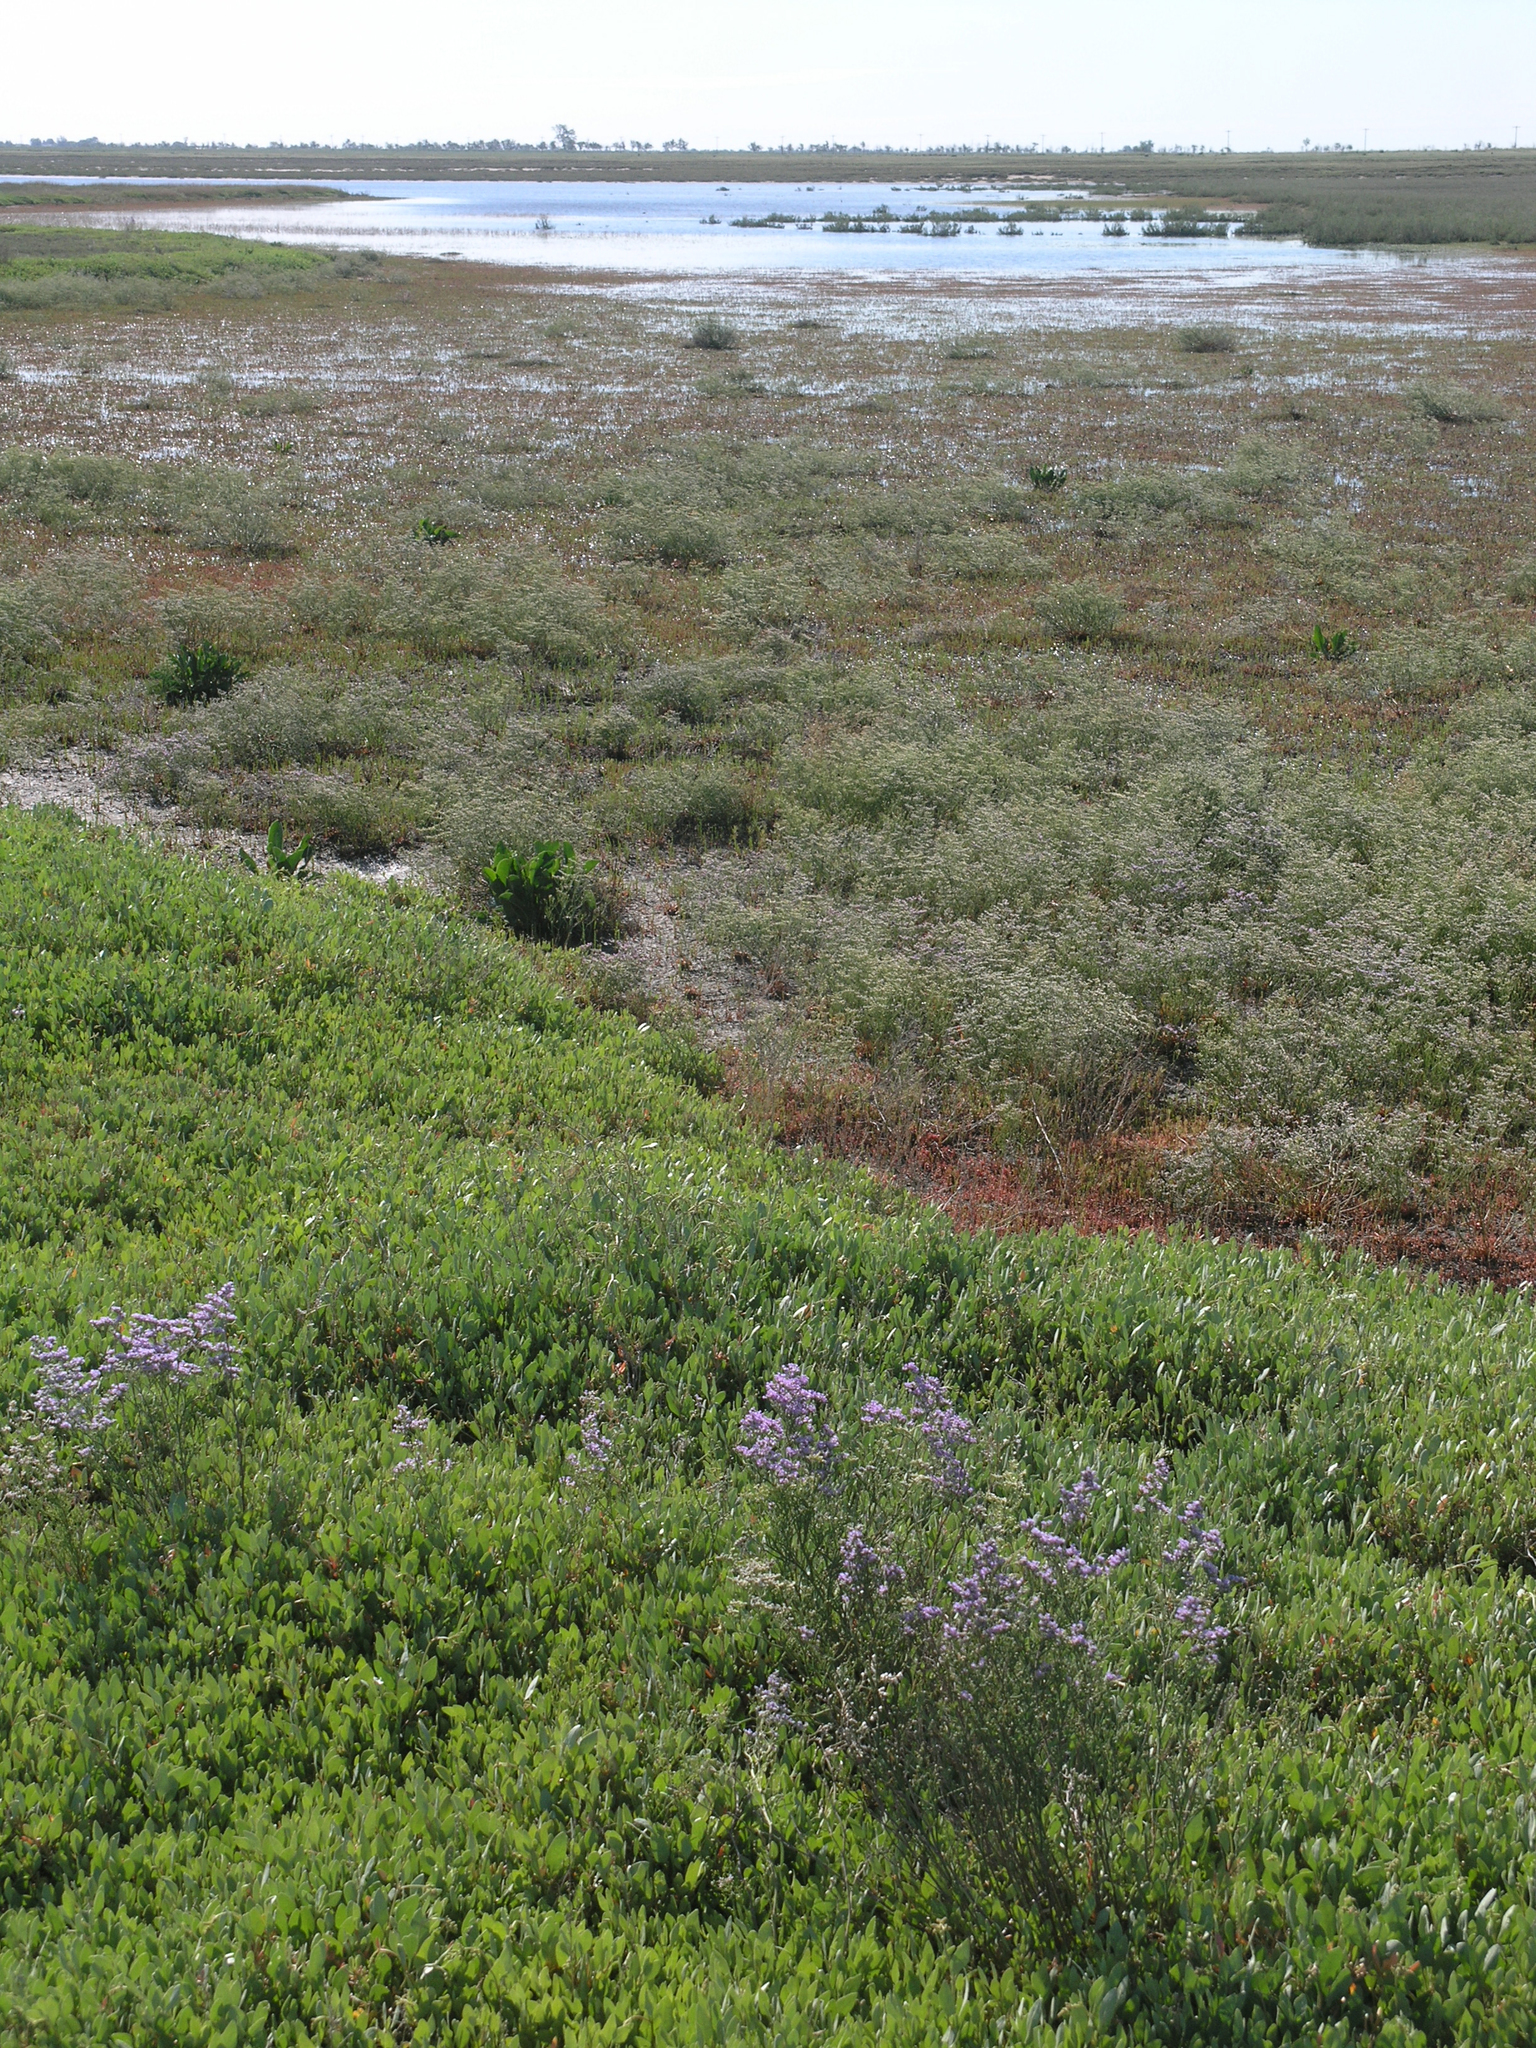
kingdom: Plantae
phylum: Tracheophyta
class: Magnoliopsida
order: Caryophyllales
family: Plumbaginaceae
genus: Limonium
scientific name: Limonium gmelini
